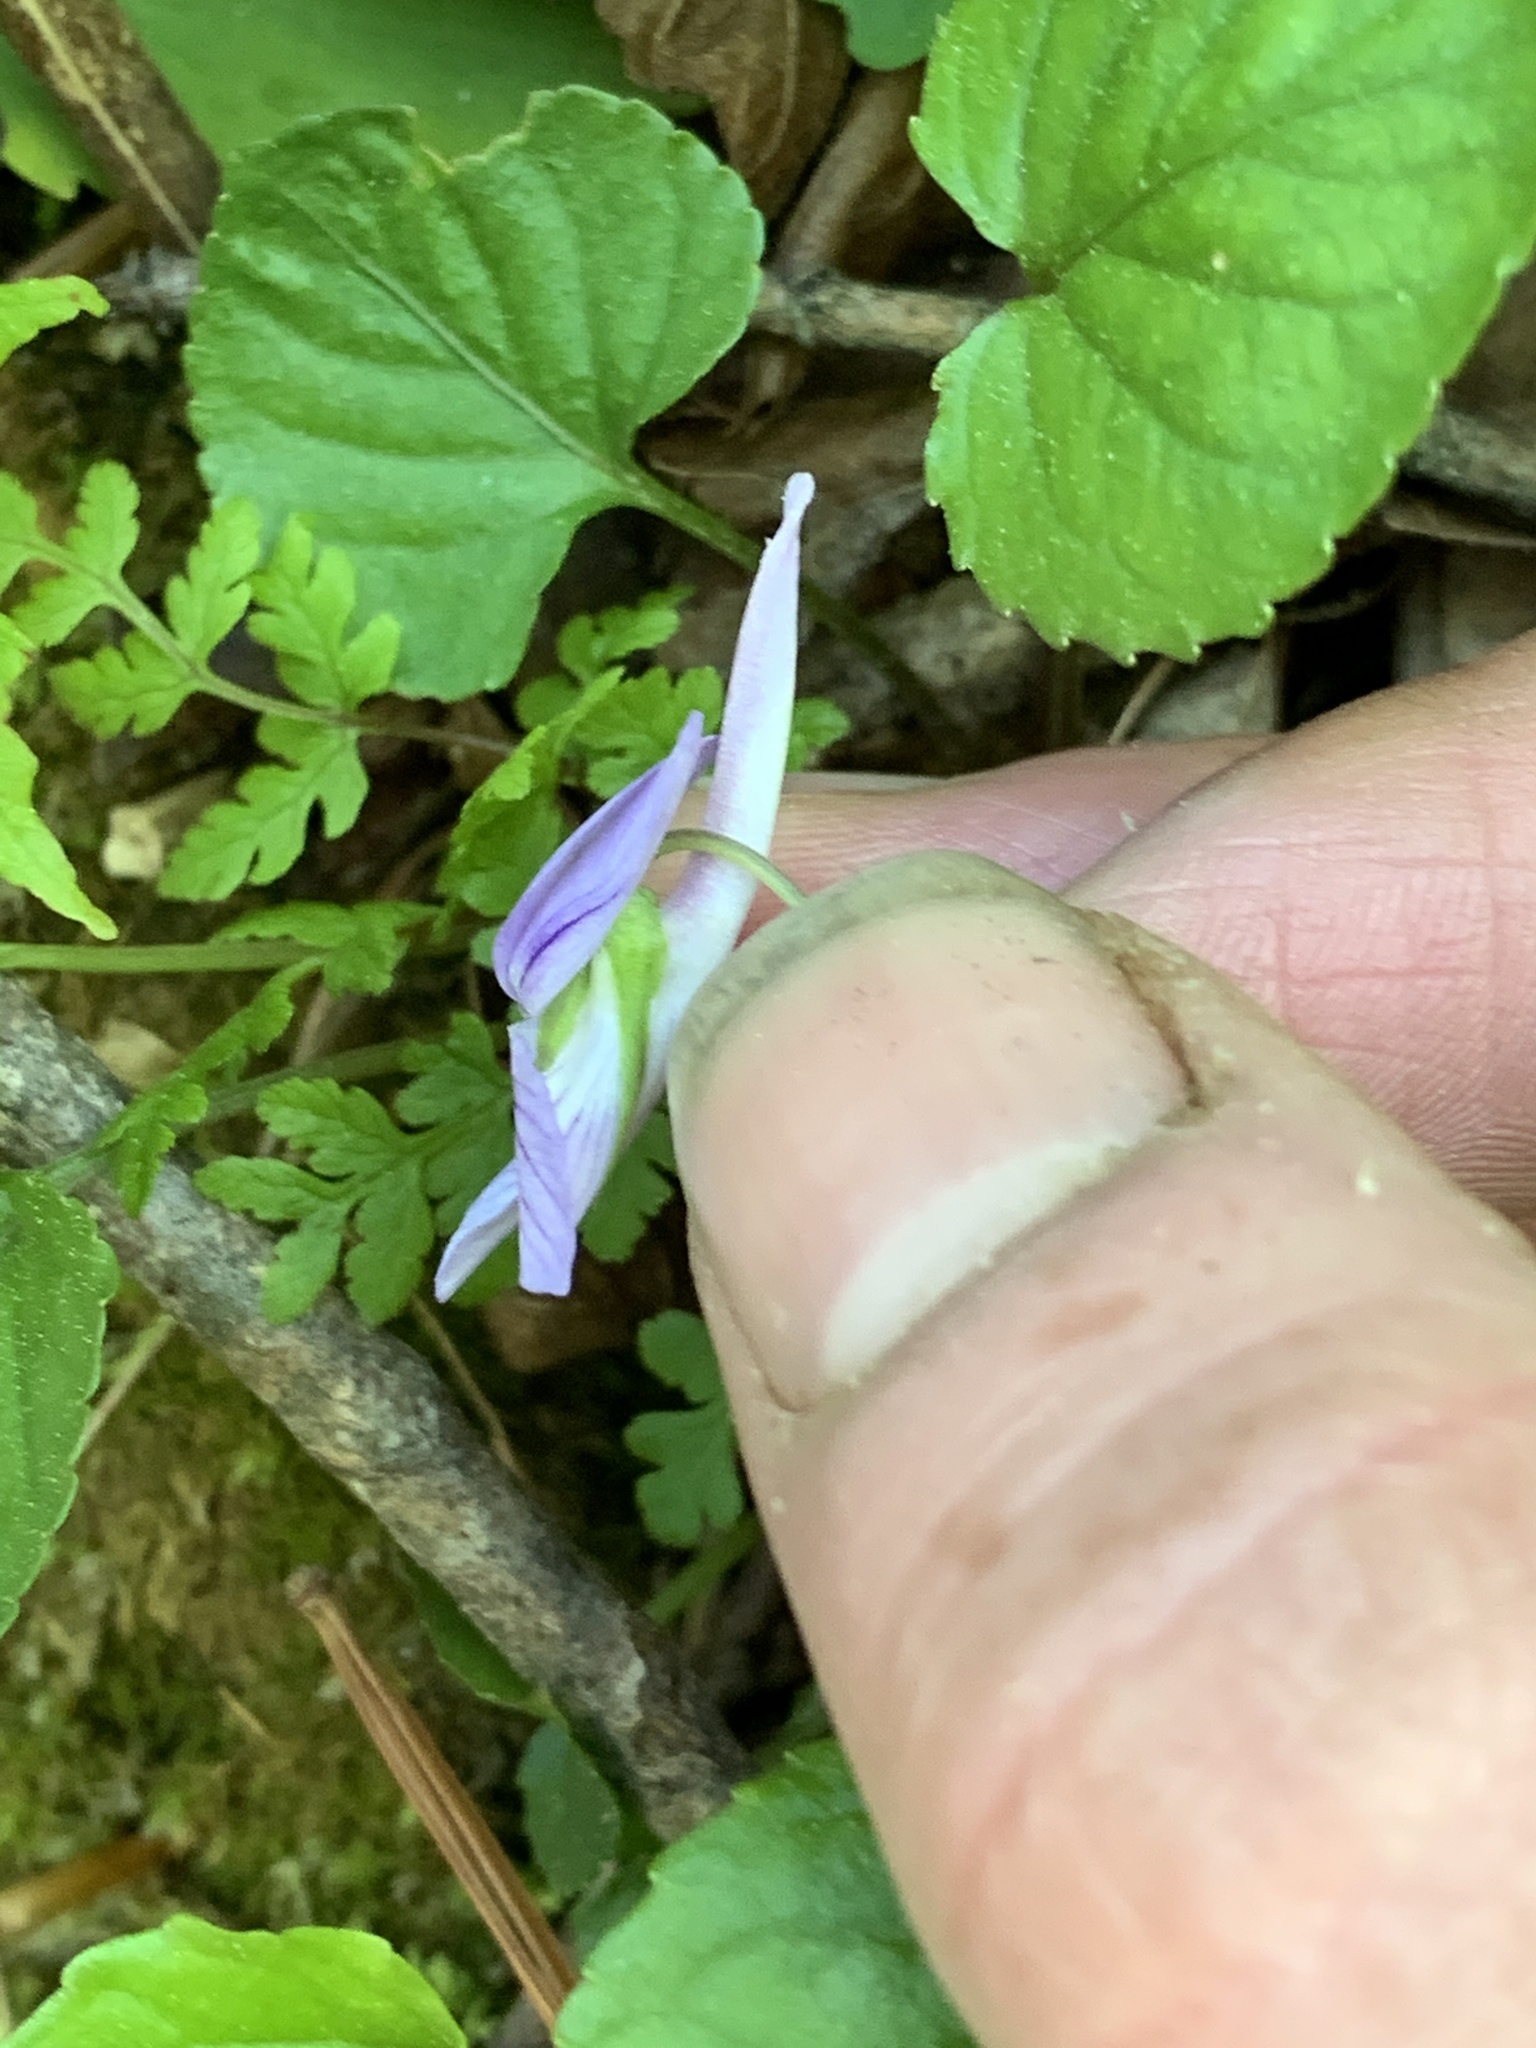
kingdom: Plantae
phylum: Tracheophyta
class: Magnoliopsida
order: Malpighiales
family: Violaceae
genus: Viola
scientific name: Viola rostrata
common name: Long-spur violet
